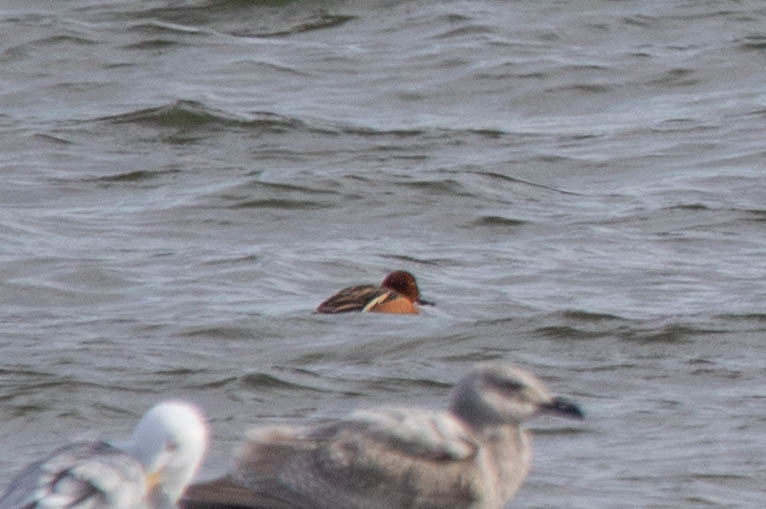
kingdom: Animalia
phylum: Chordata
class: Aves
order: Anseriformes
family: Anatidae
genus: Spatula
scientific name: Spatula cyanoptera
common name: Cinnamon teal
